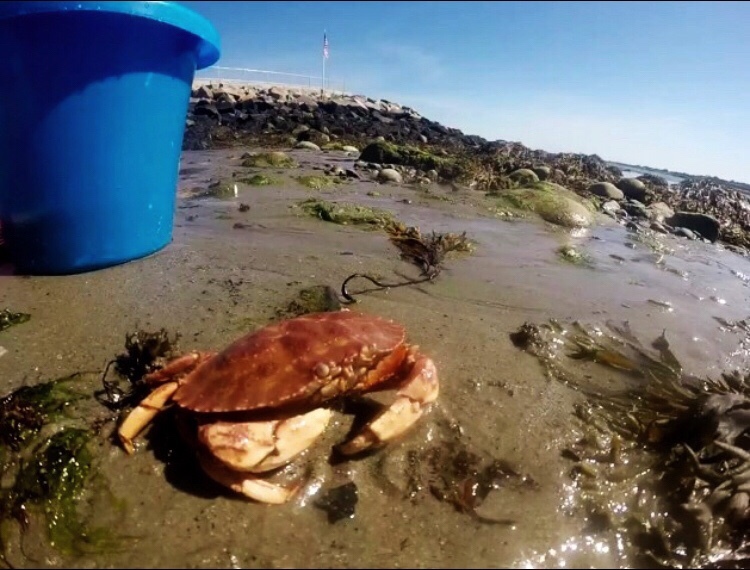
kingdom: Animalia
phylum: Arthropoda
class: Malacostraca
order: Decapoda
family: Cancridae
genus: Cancer
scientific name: Cancer borealis
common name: Jonah crab
